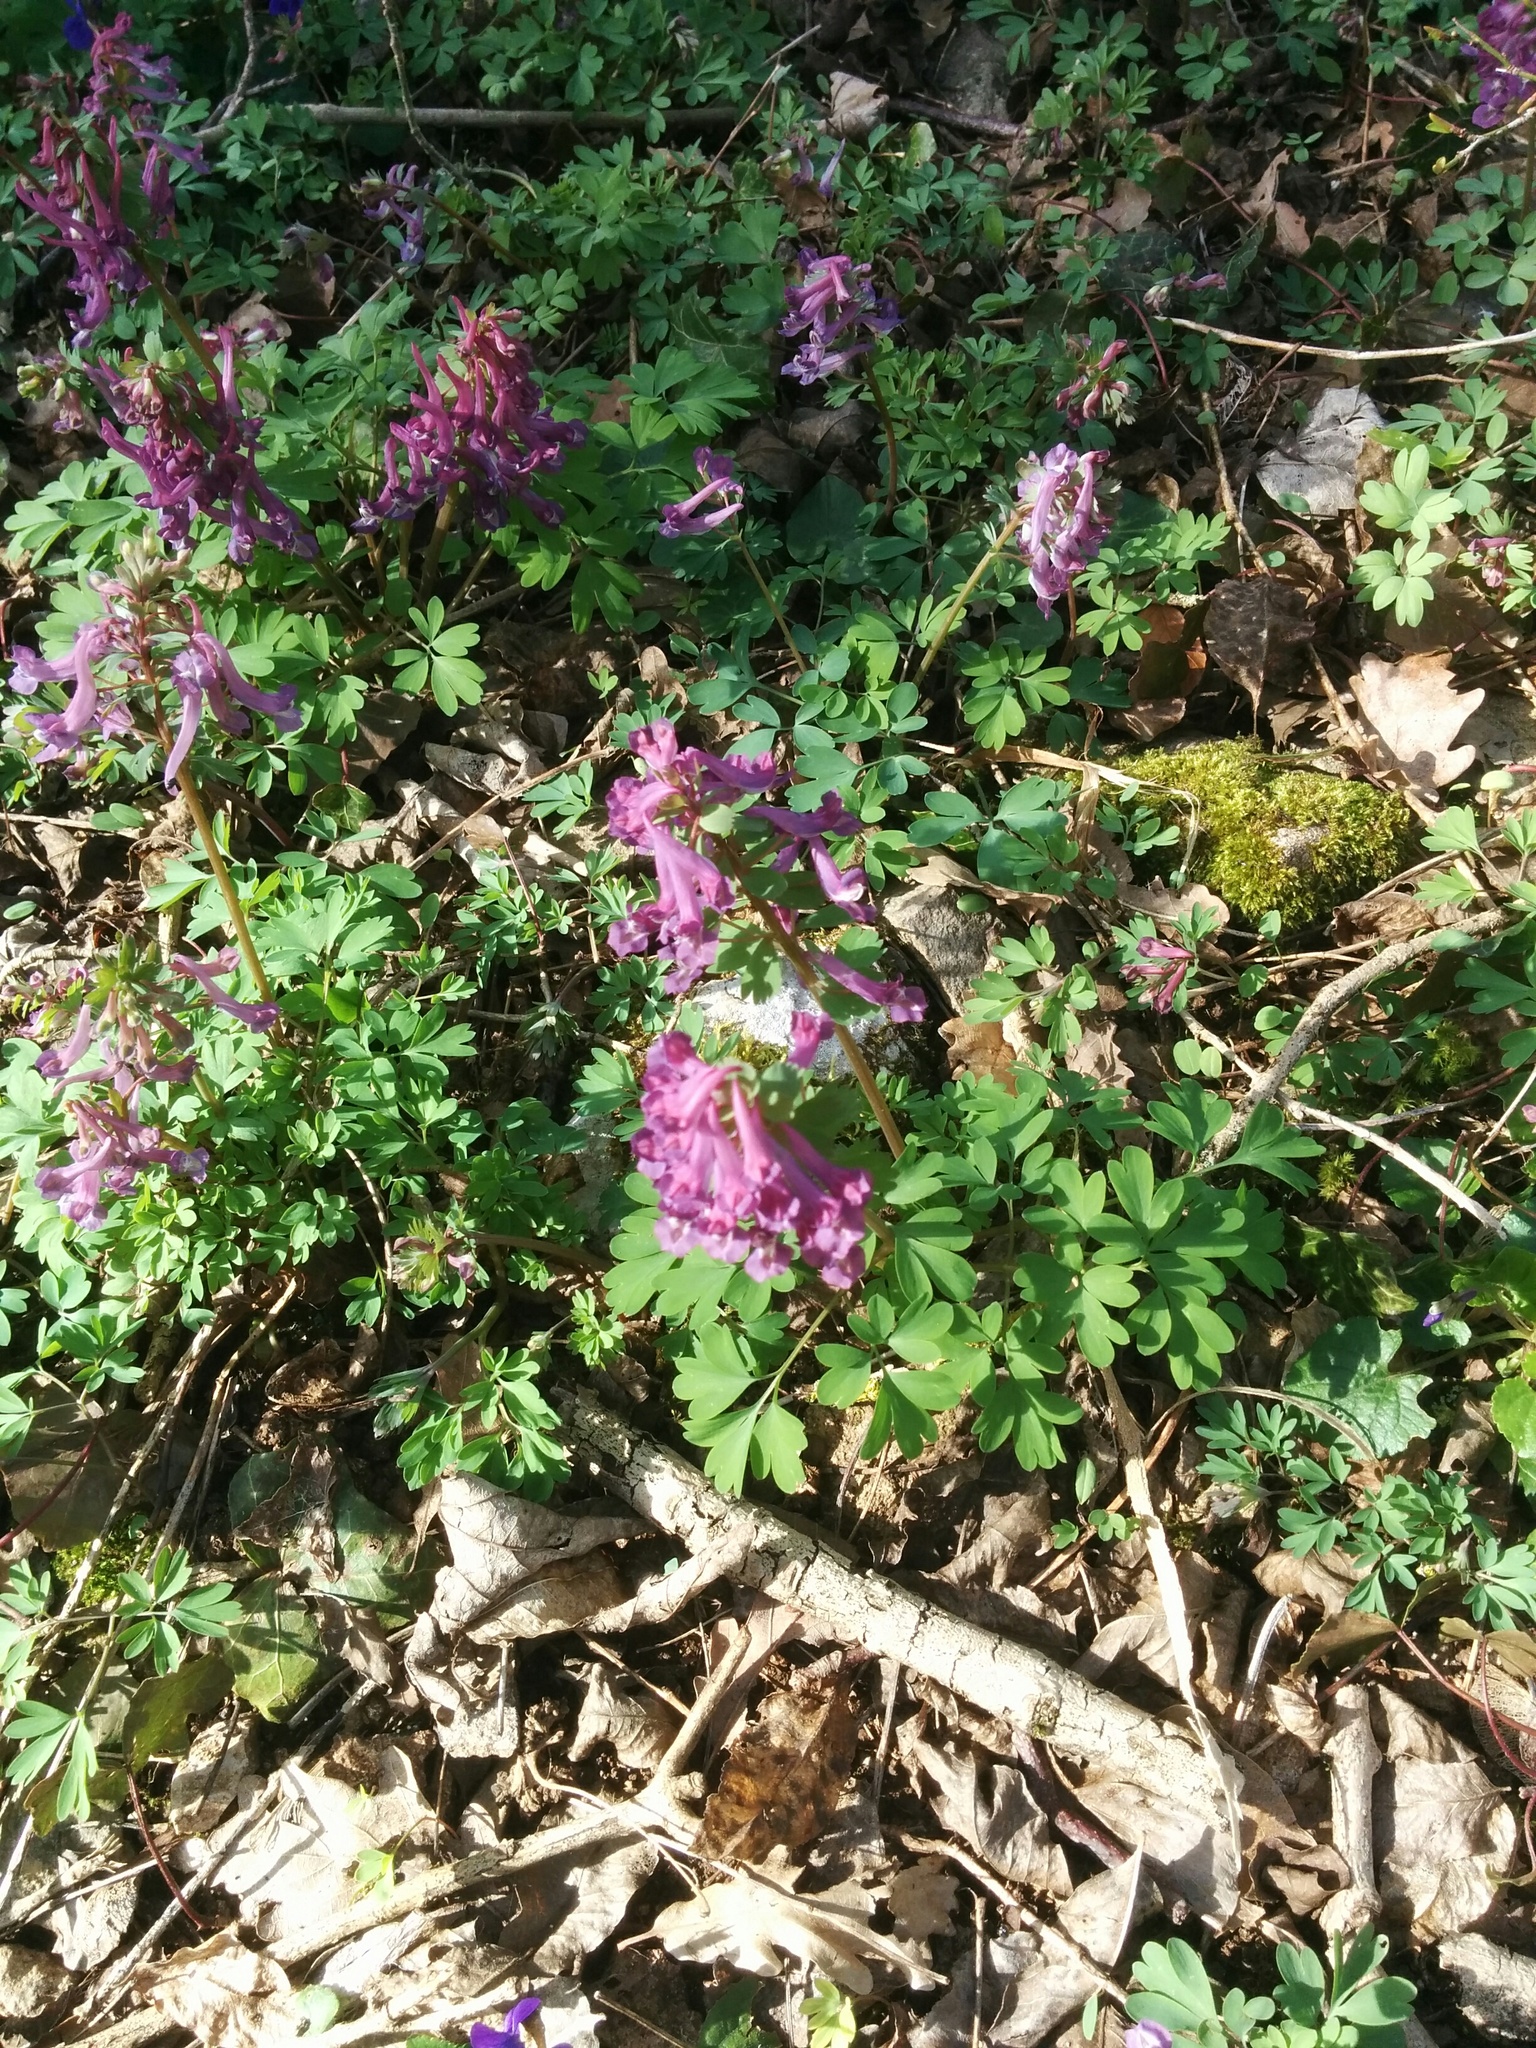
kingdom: Plantae
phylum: Tracheophyta
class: Magnoliopsida
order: Ranunculales
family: Papaveraceae
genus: Corydalis
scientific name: Corydalis solida
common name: Bird-in-a-bush
